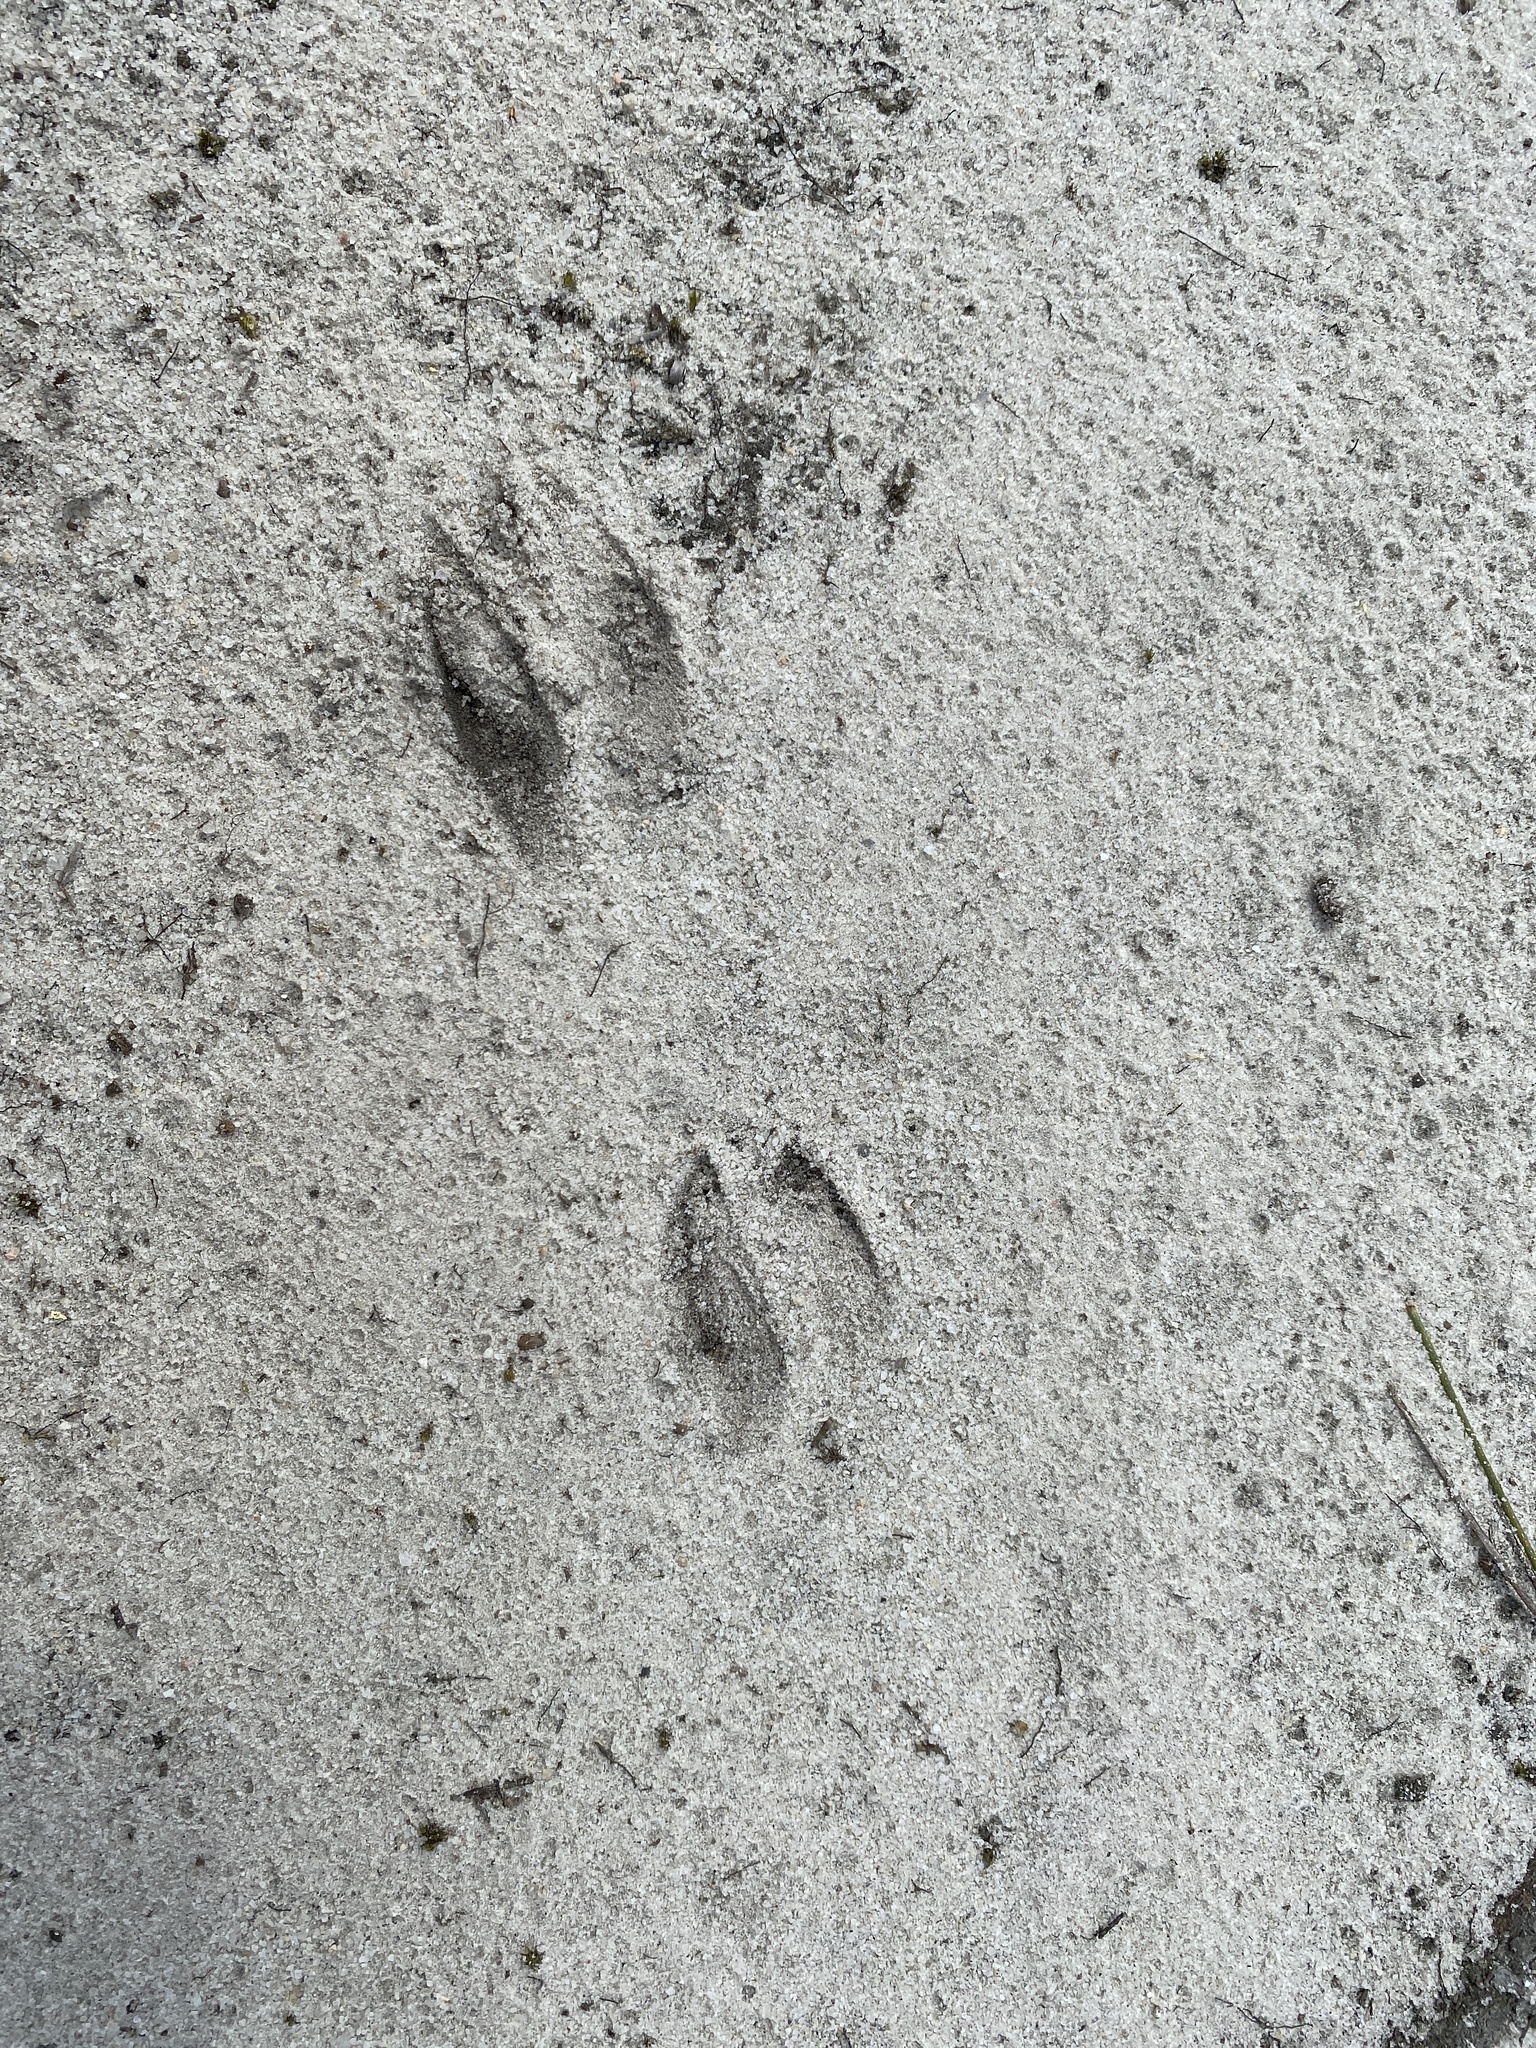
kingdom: Animalia
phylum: Chordata
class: Mammalia
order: Artiodactyla
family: Cervidae
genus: Odocoileus
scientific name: Odocoileus virginianus
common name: White-tailed deer
